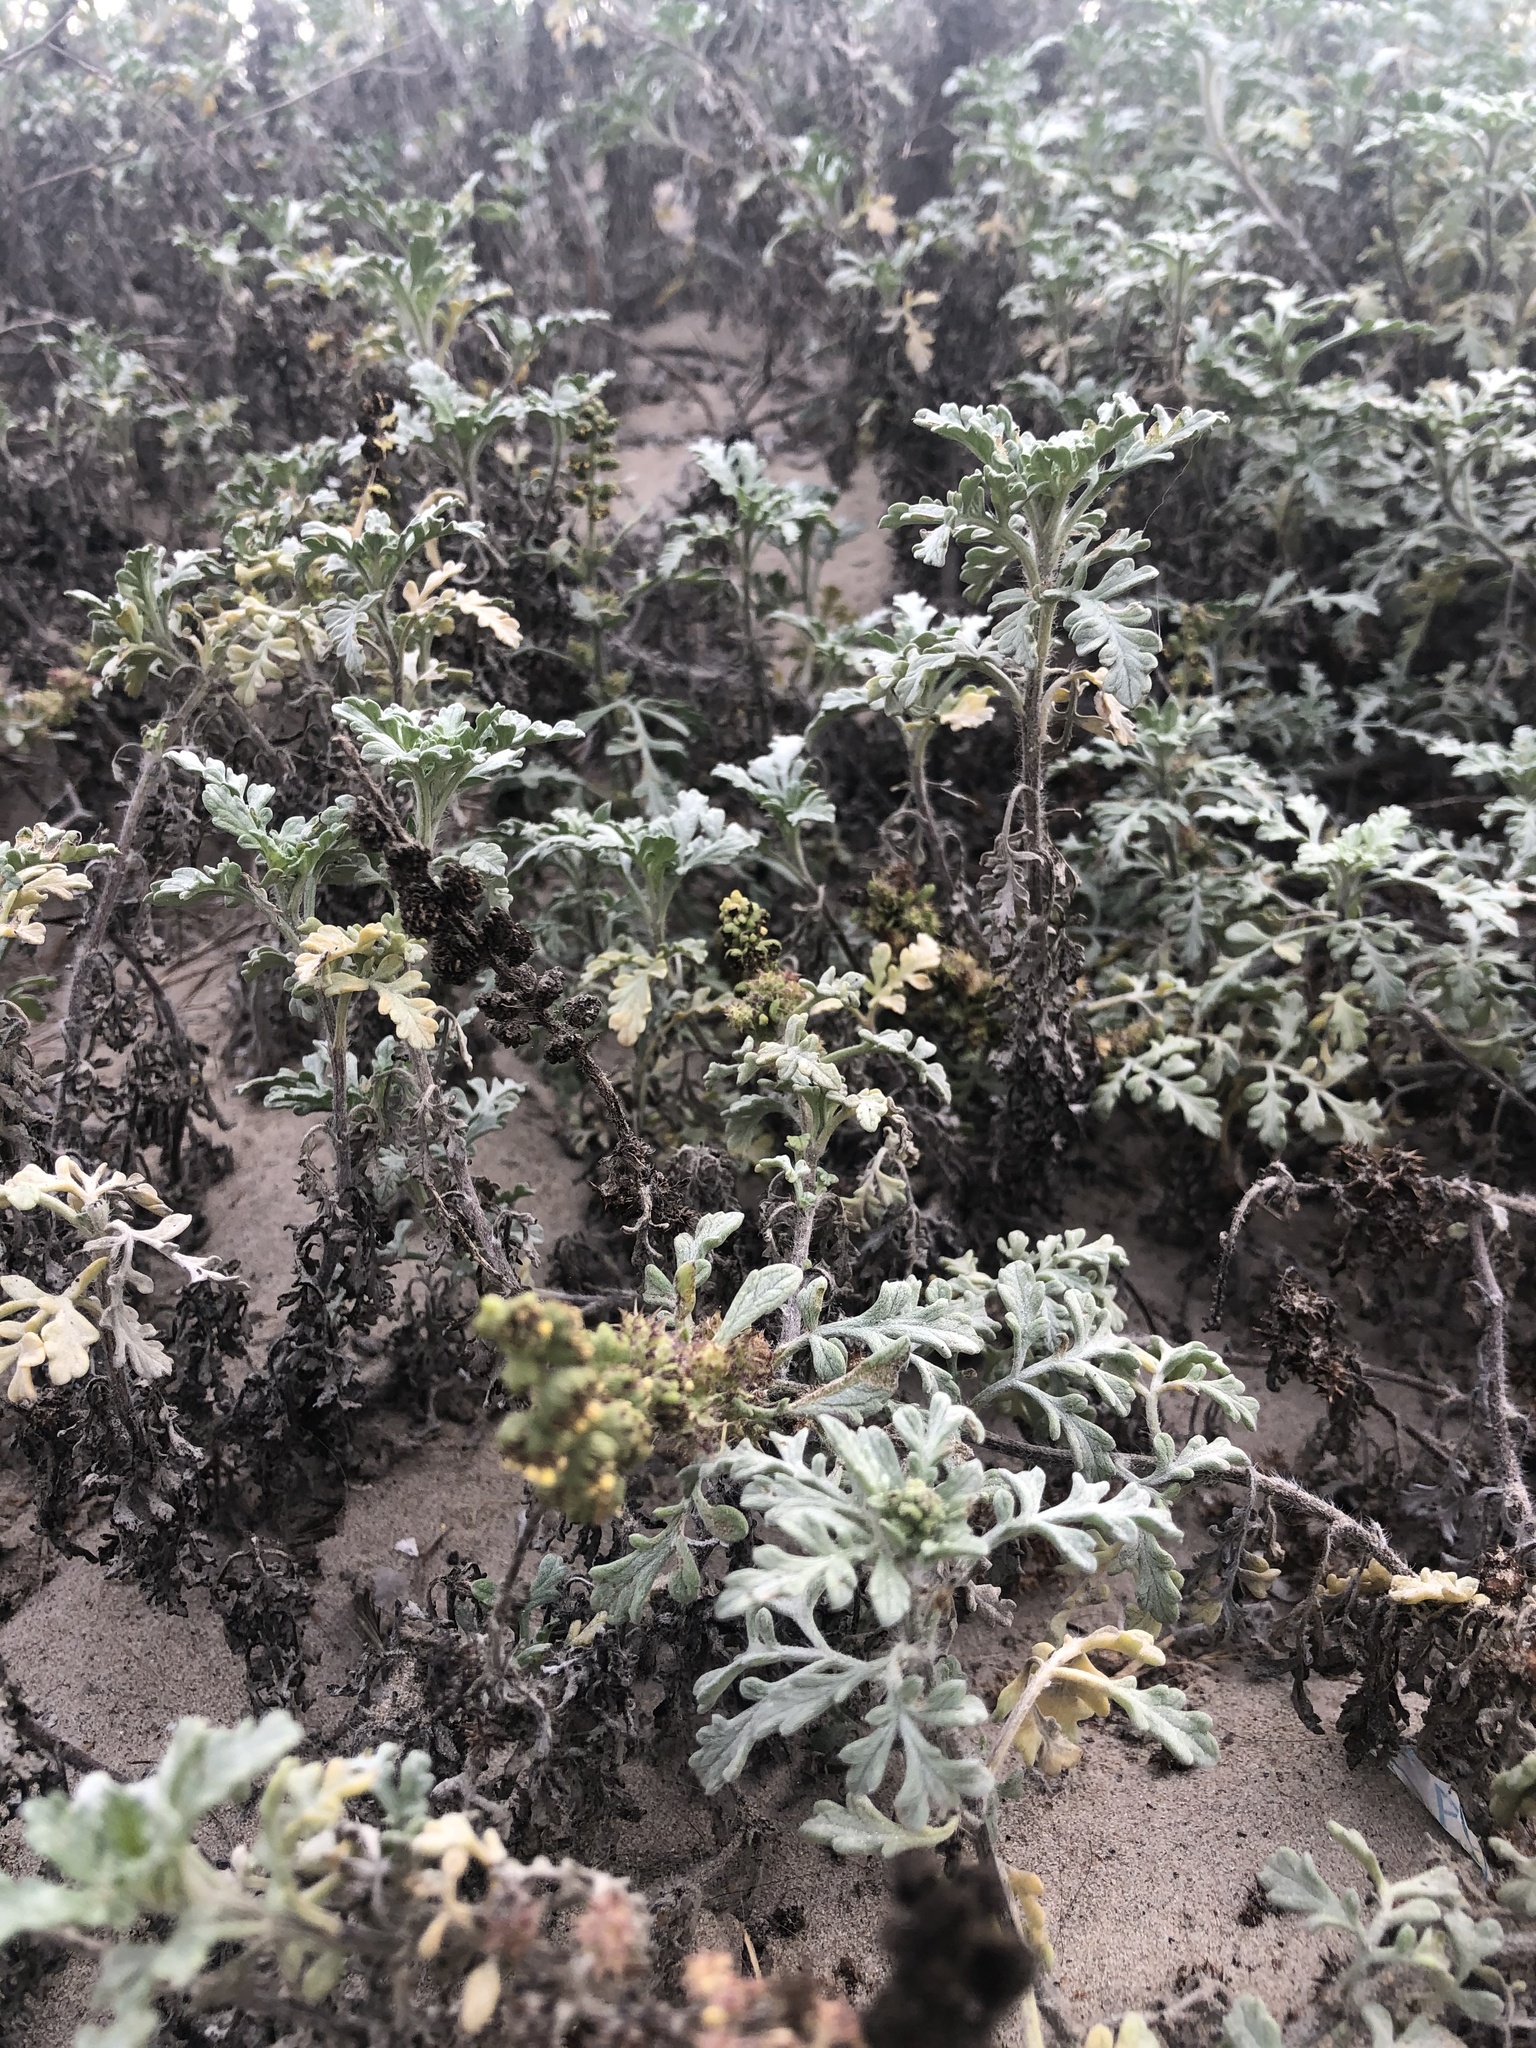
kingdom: Plantae
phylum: Tracheophyta
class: Magnoliopsida
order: Asterales
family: Asteraceae
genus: Ambrosia
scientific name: Ambrosia chamissonis
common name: Beachbur
